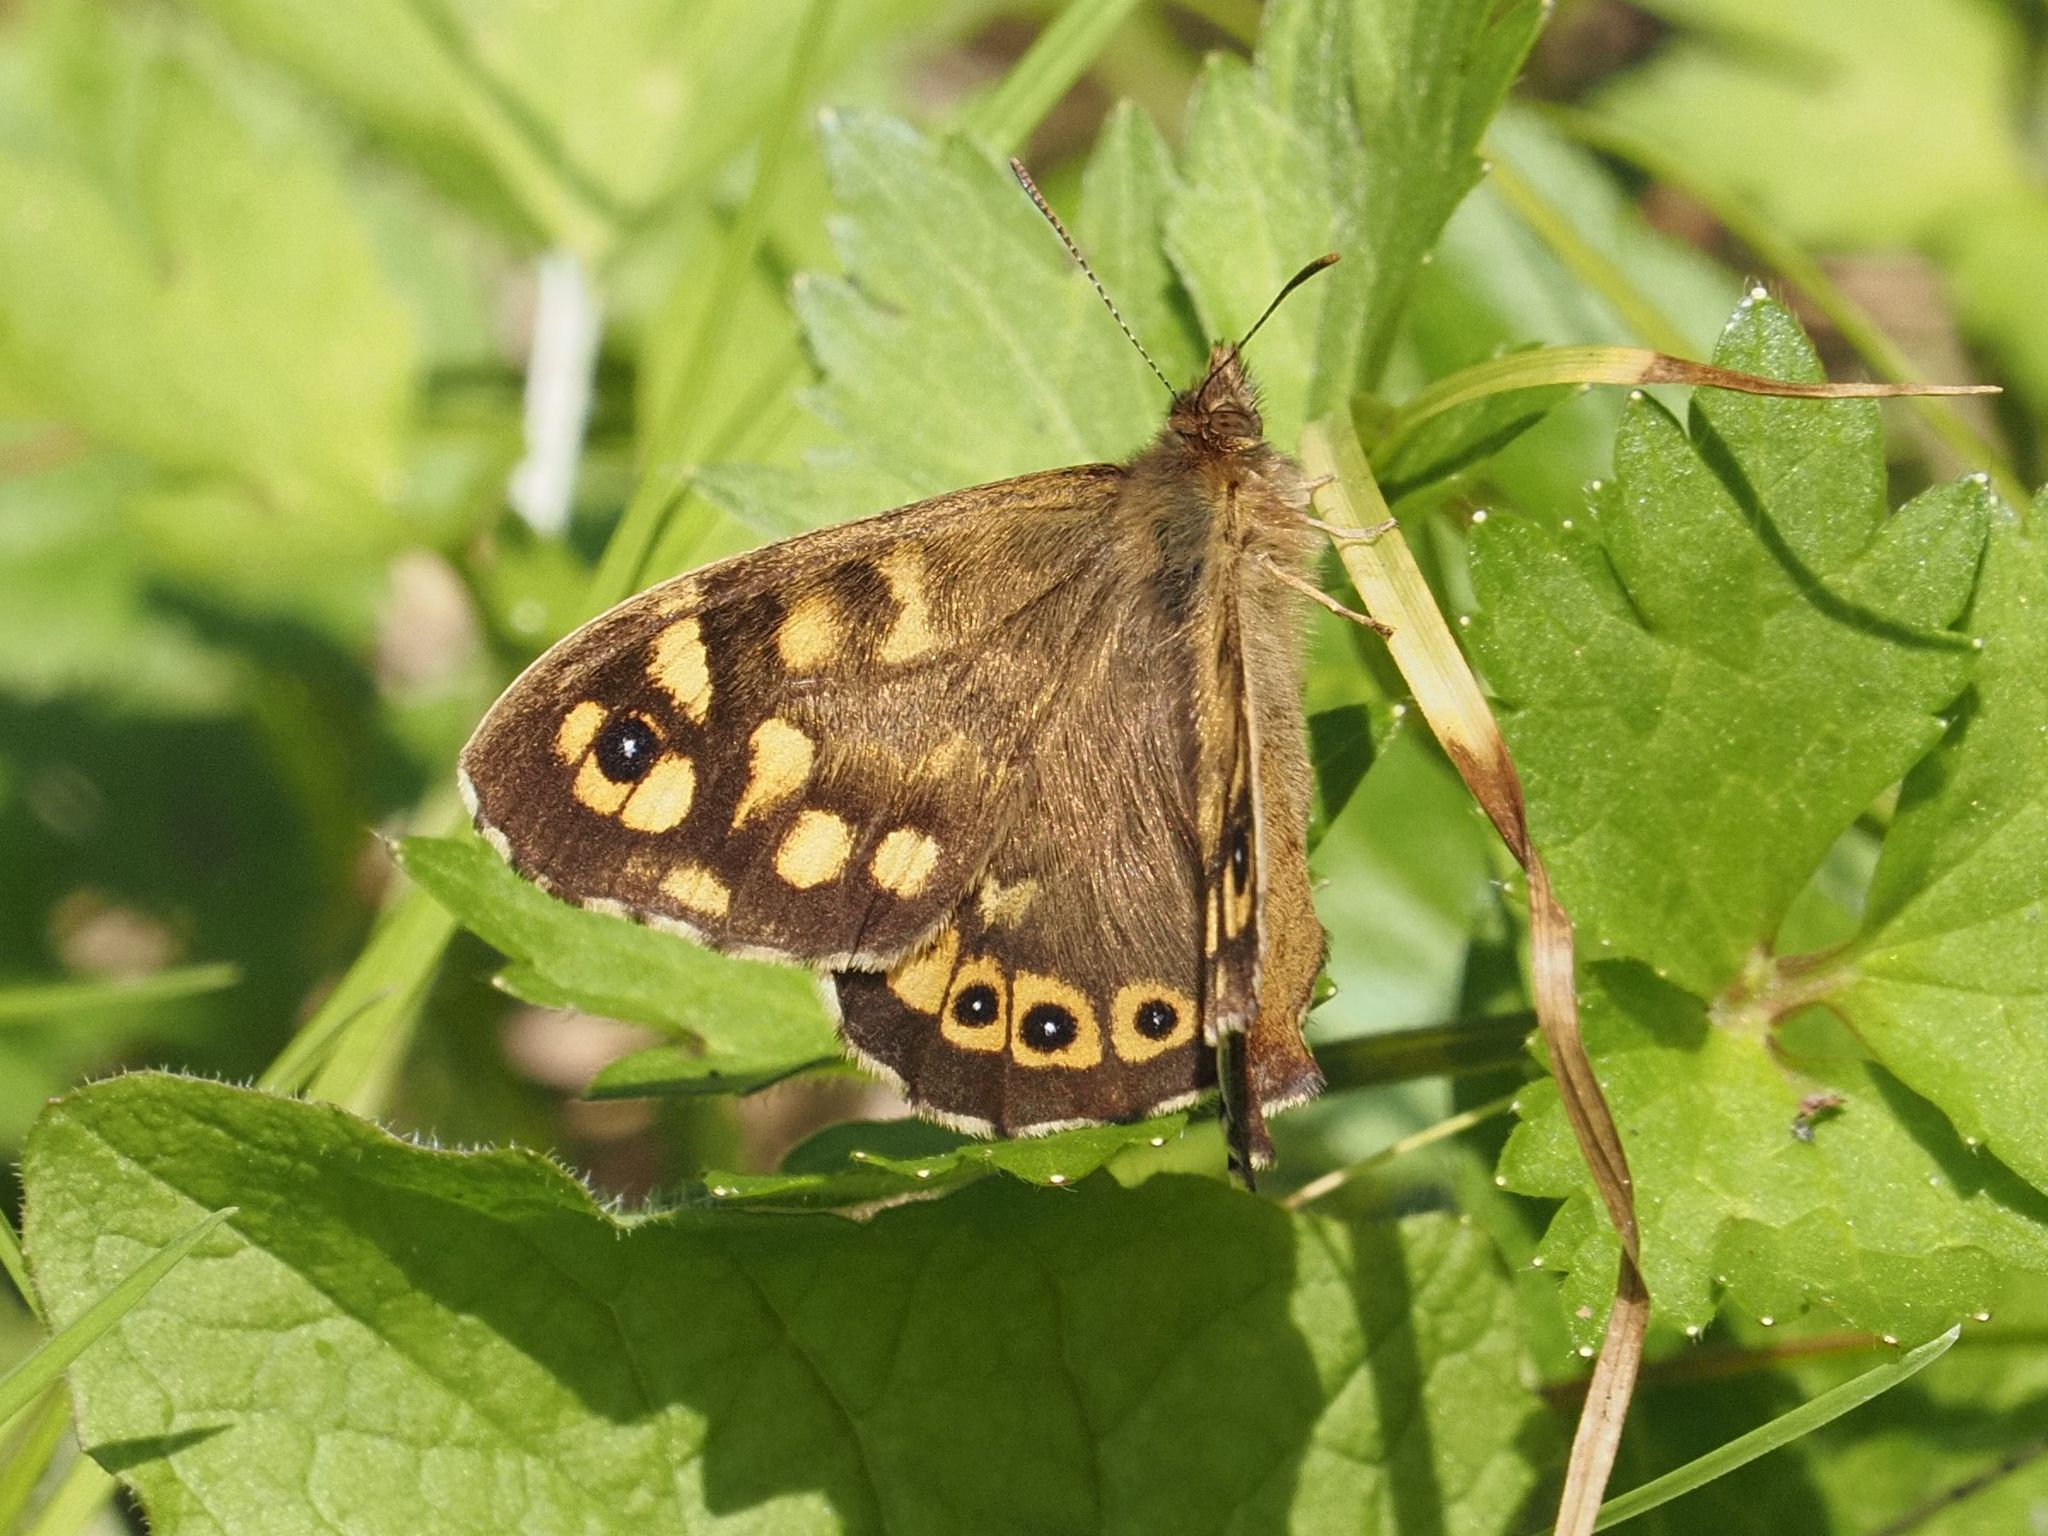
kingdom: Animalia
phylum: Arthropoda
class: Insecta
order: Lepidoptera
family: Nymphalidae
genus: Pararge
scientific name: Pararge aegeria
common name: Speckled wood
